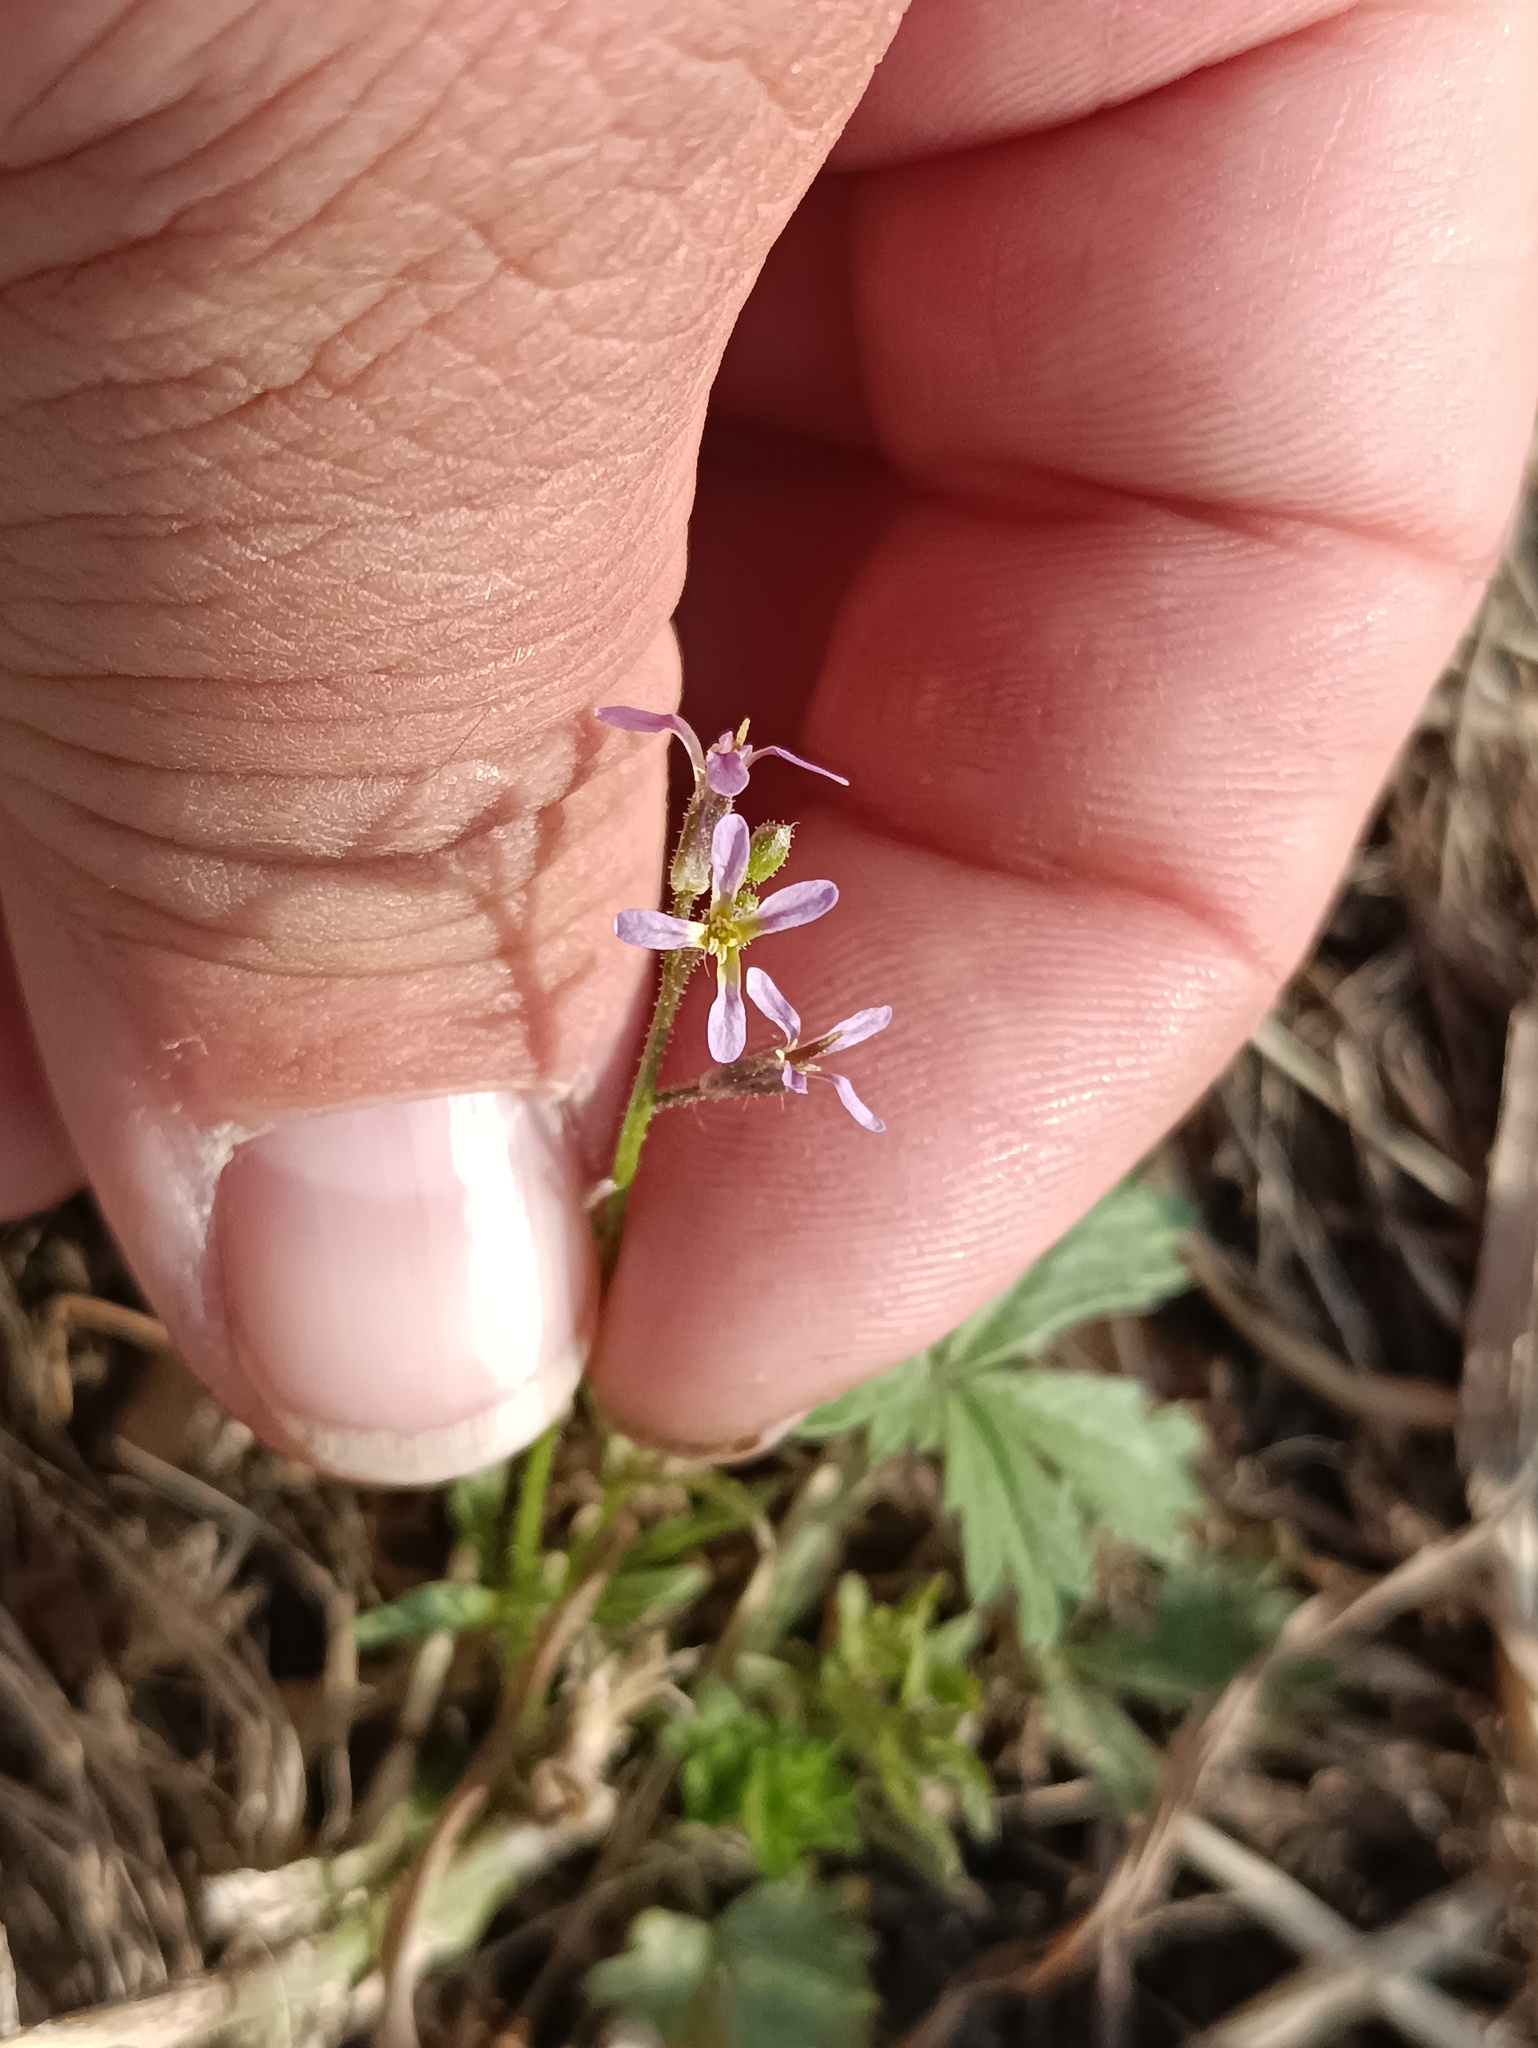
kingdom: Plantae
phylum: Tracheophyta
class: Magnoliopsida
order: Brassicales
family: Brassicaceae
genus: Chorispora
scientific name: Chorispora tenella
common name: Crossflower
